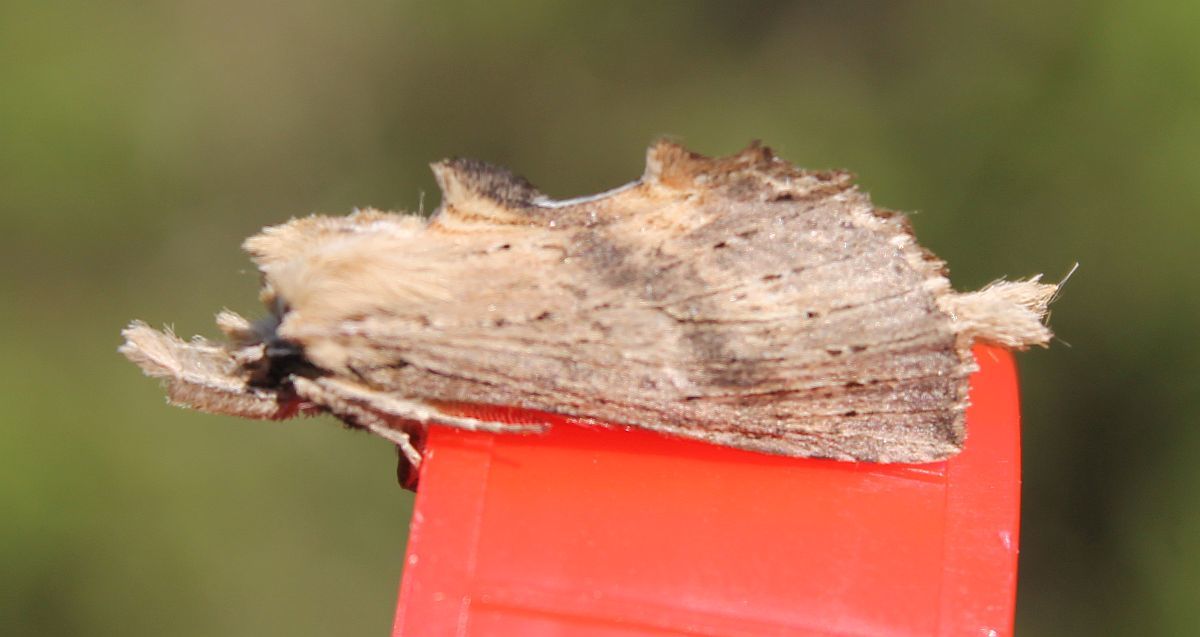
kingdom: Animalia
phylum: Arthropoda
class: Insecta
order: Lepidoptera
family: Notodontidae
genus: Pterostoma
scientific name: Pterostoma palpina
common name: Pale prominent
